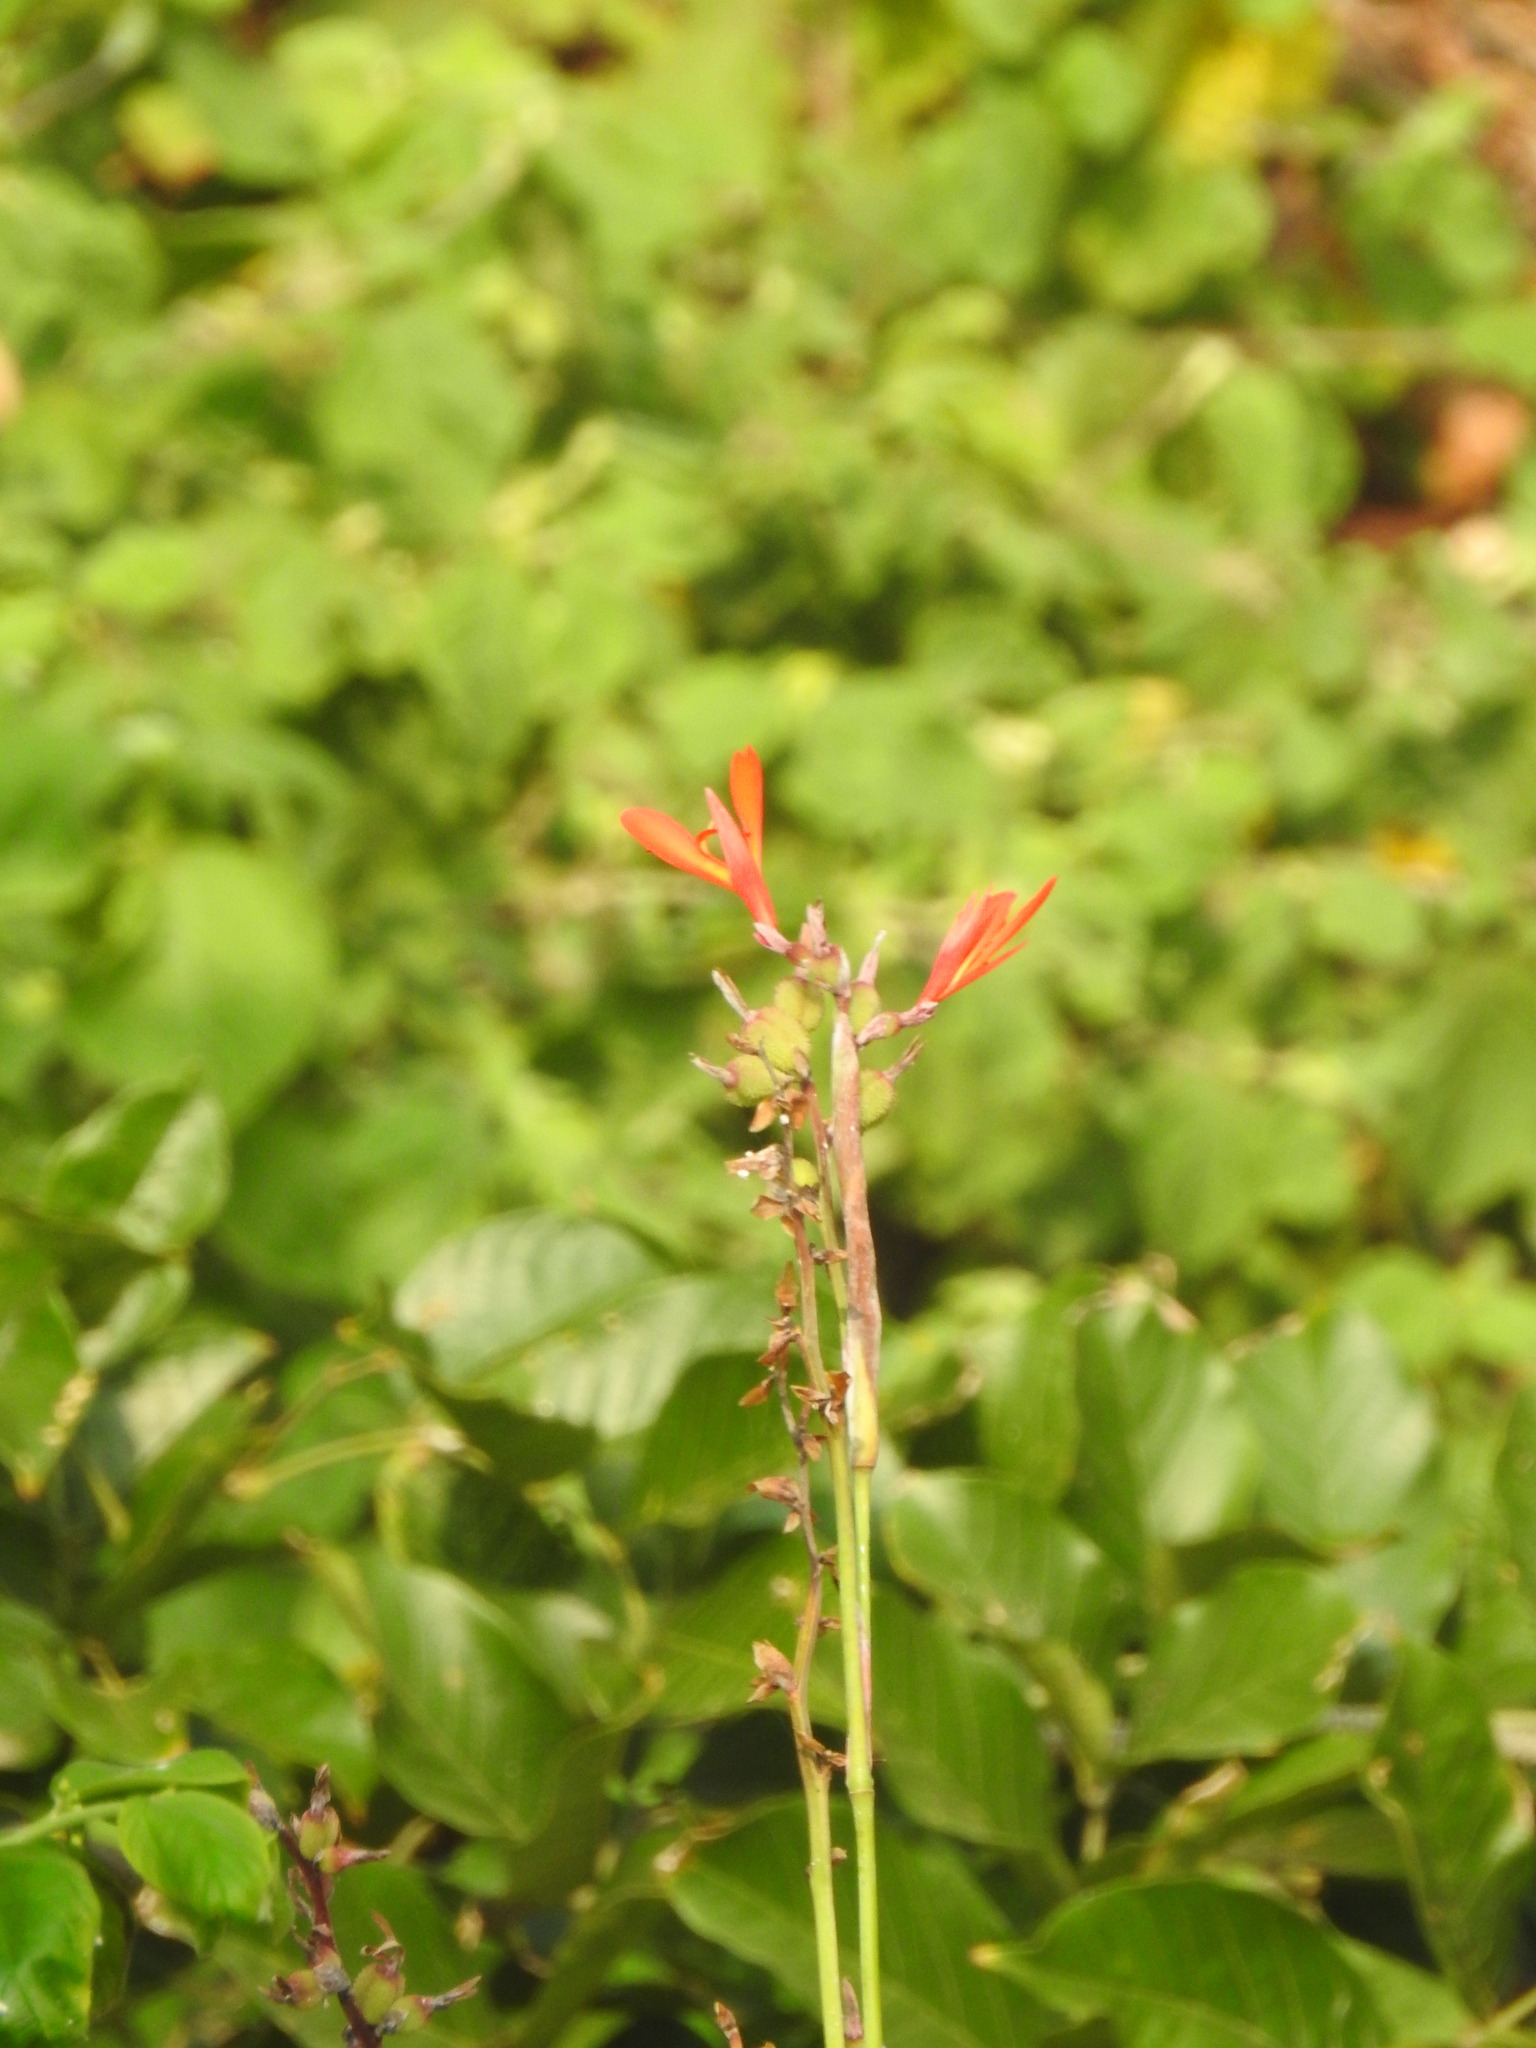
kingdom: Plantae
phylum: Tracheophyta
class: Liliopsida
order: Zingiberales
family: Cannaceae
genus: Canna
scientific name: Canna indica
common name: Indian shot
